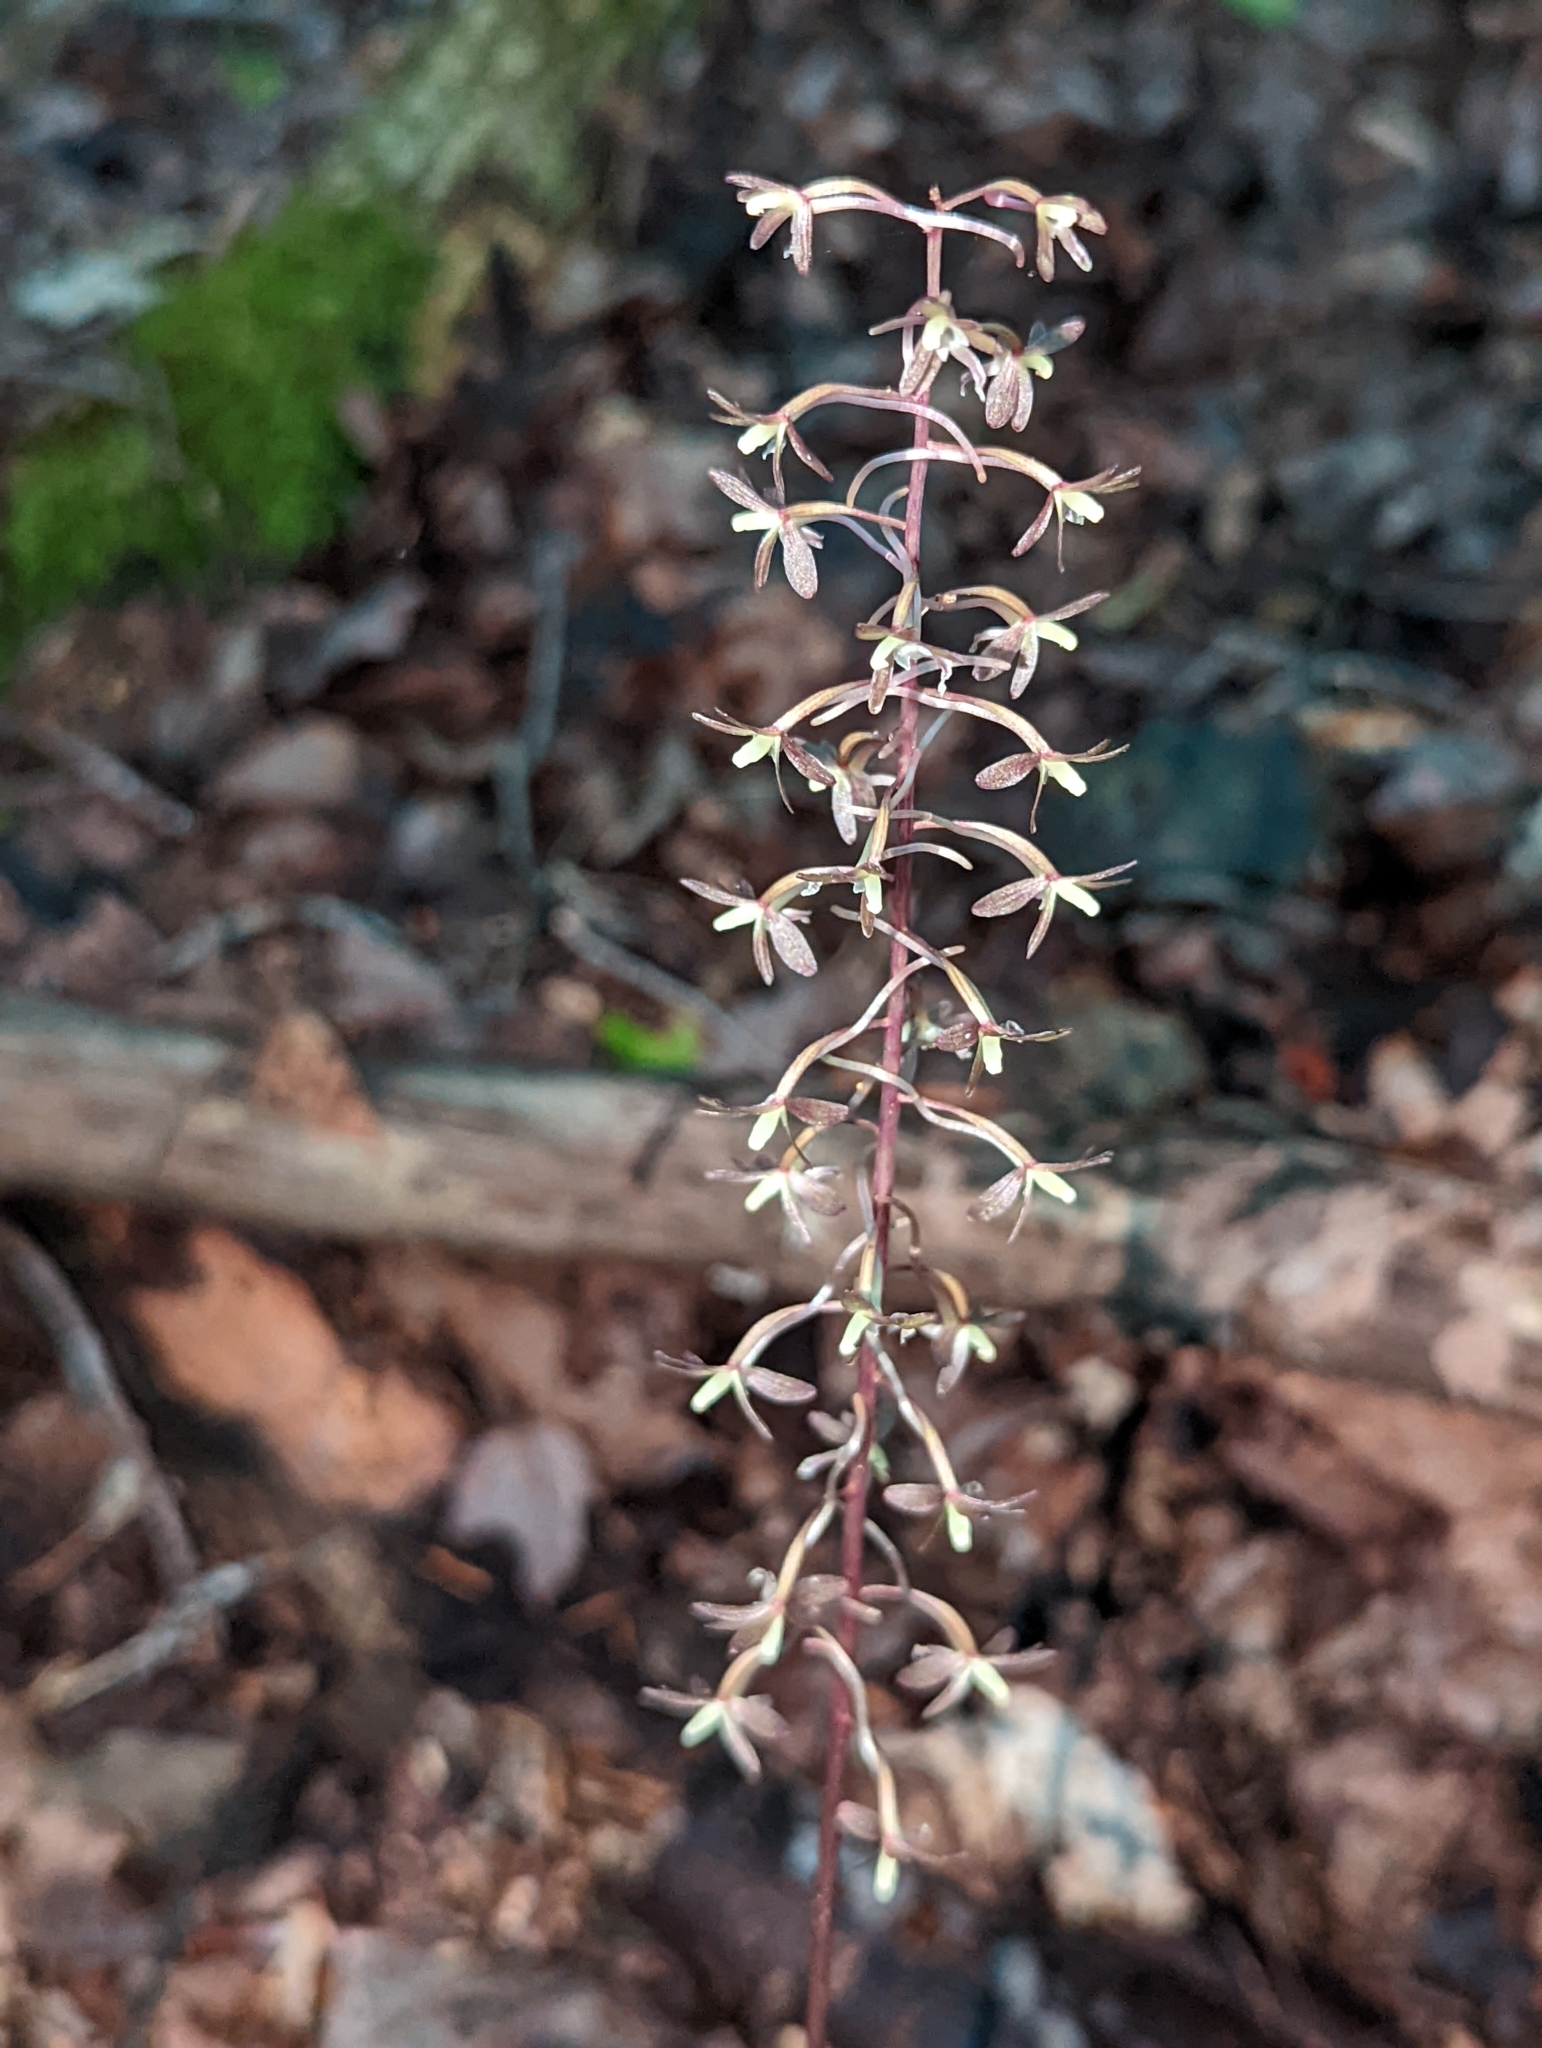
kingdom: Plantae
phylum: Tracheophyta
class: Liliopsida
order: Asparagales
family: Orchidaceae
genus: Tipularia
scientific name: Tipularia discolor
